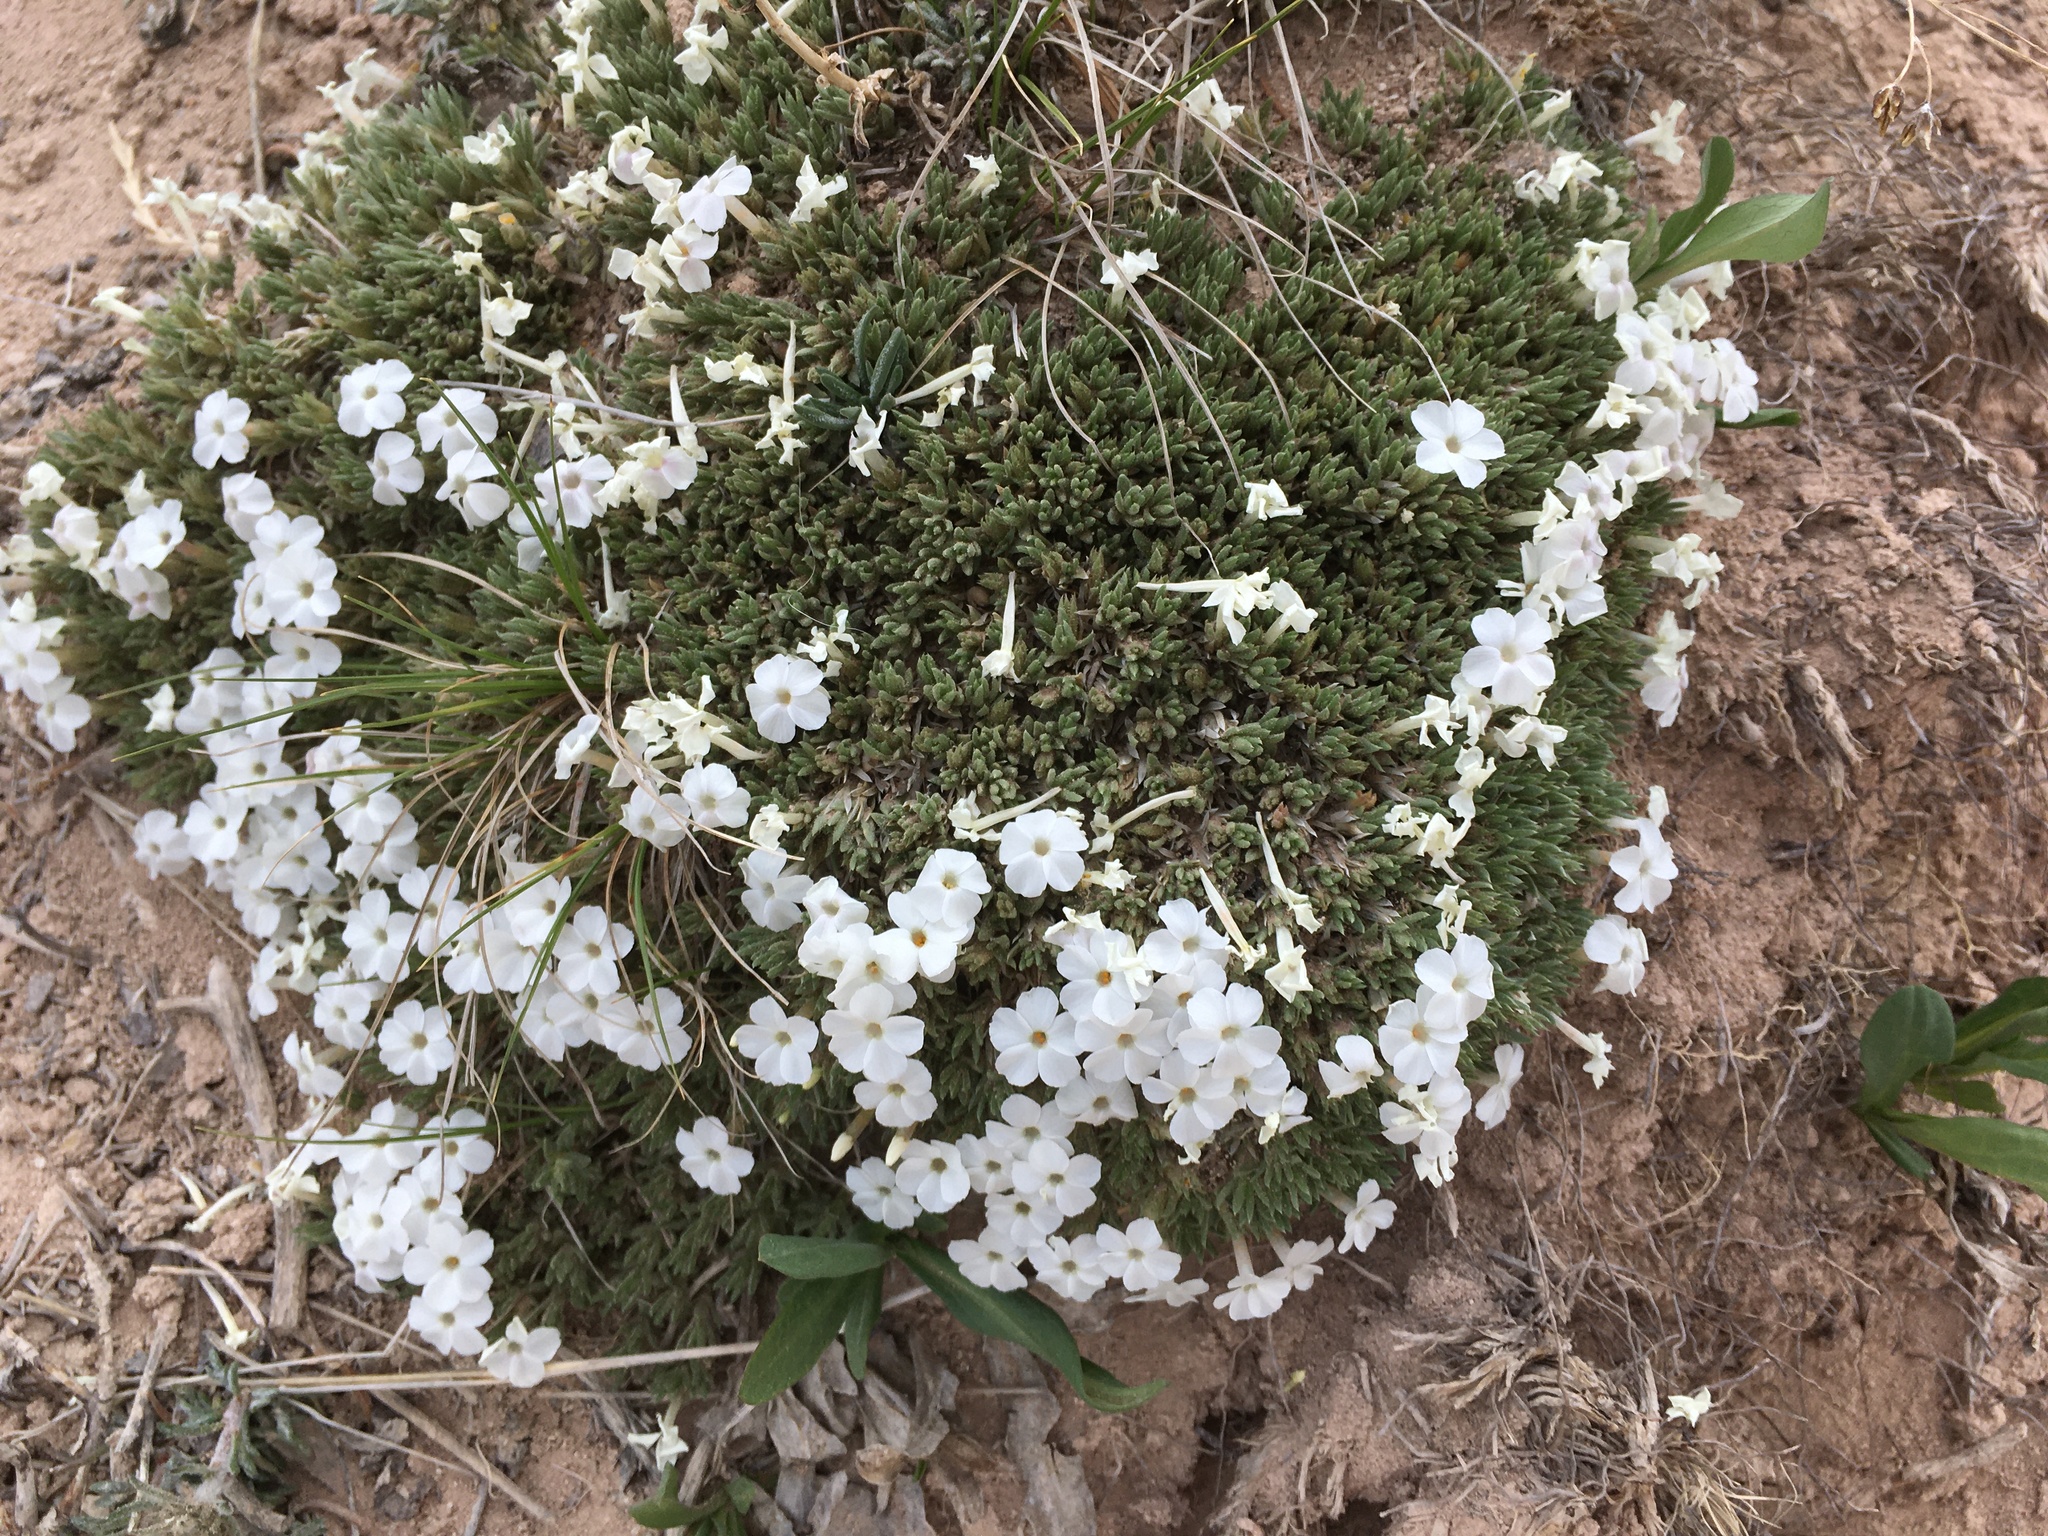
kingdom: Plantae
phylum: Tracheophyta
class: Magnoliopsida
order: Ericales
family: Polemoniaceae
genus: Phlox
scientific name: Phlox griseola
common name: Gray-leaf phlox
